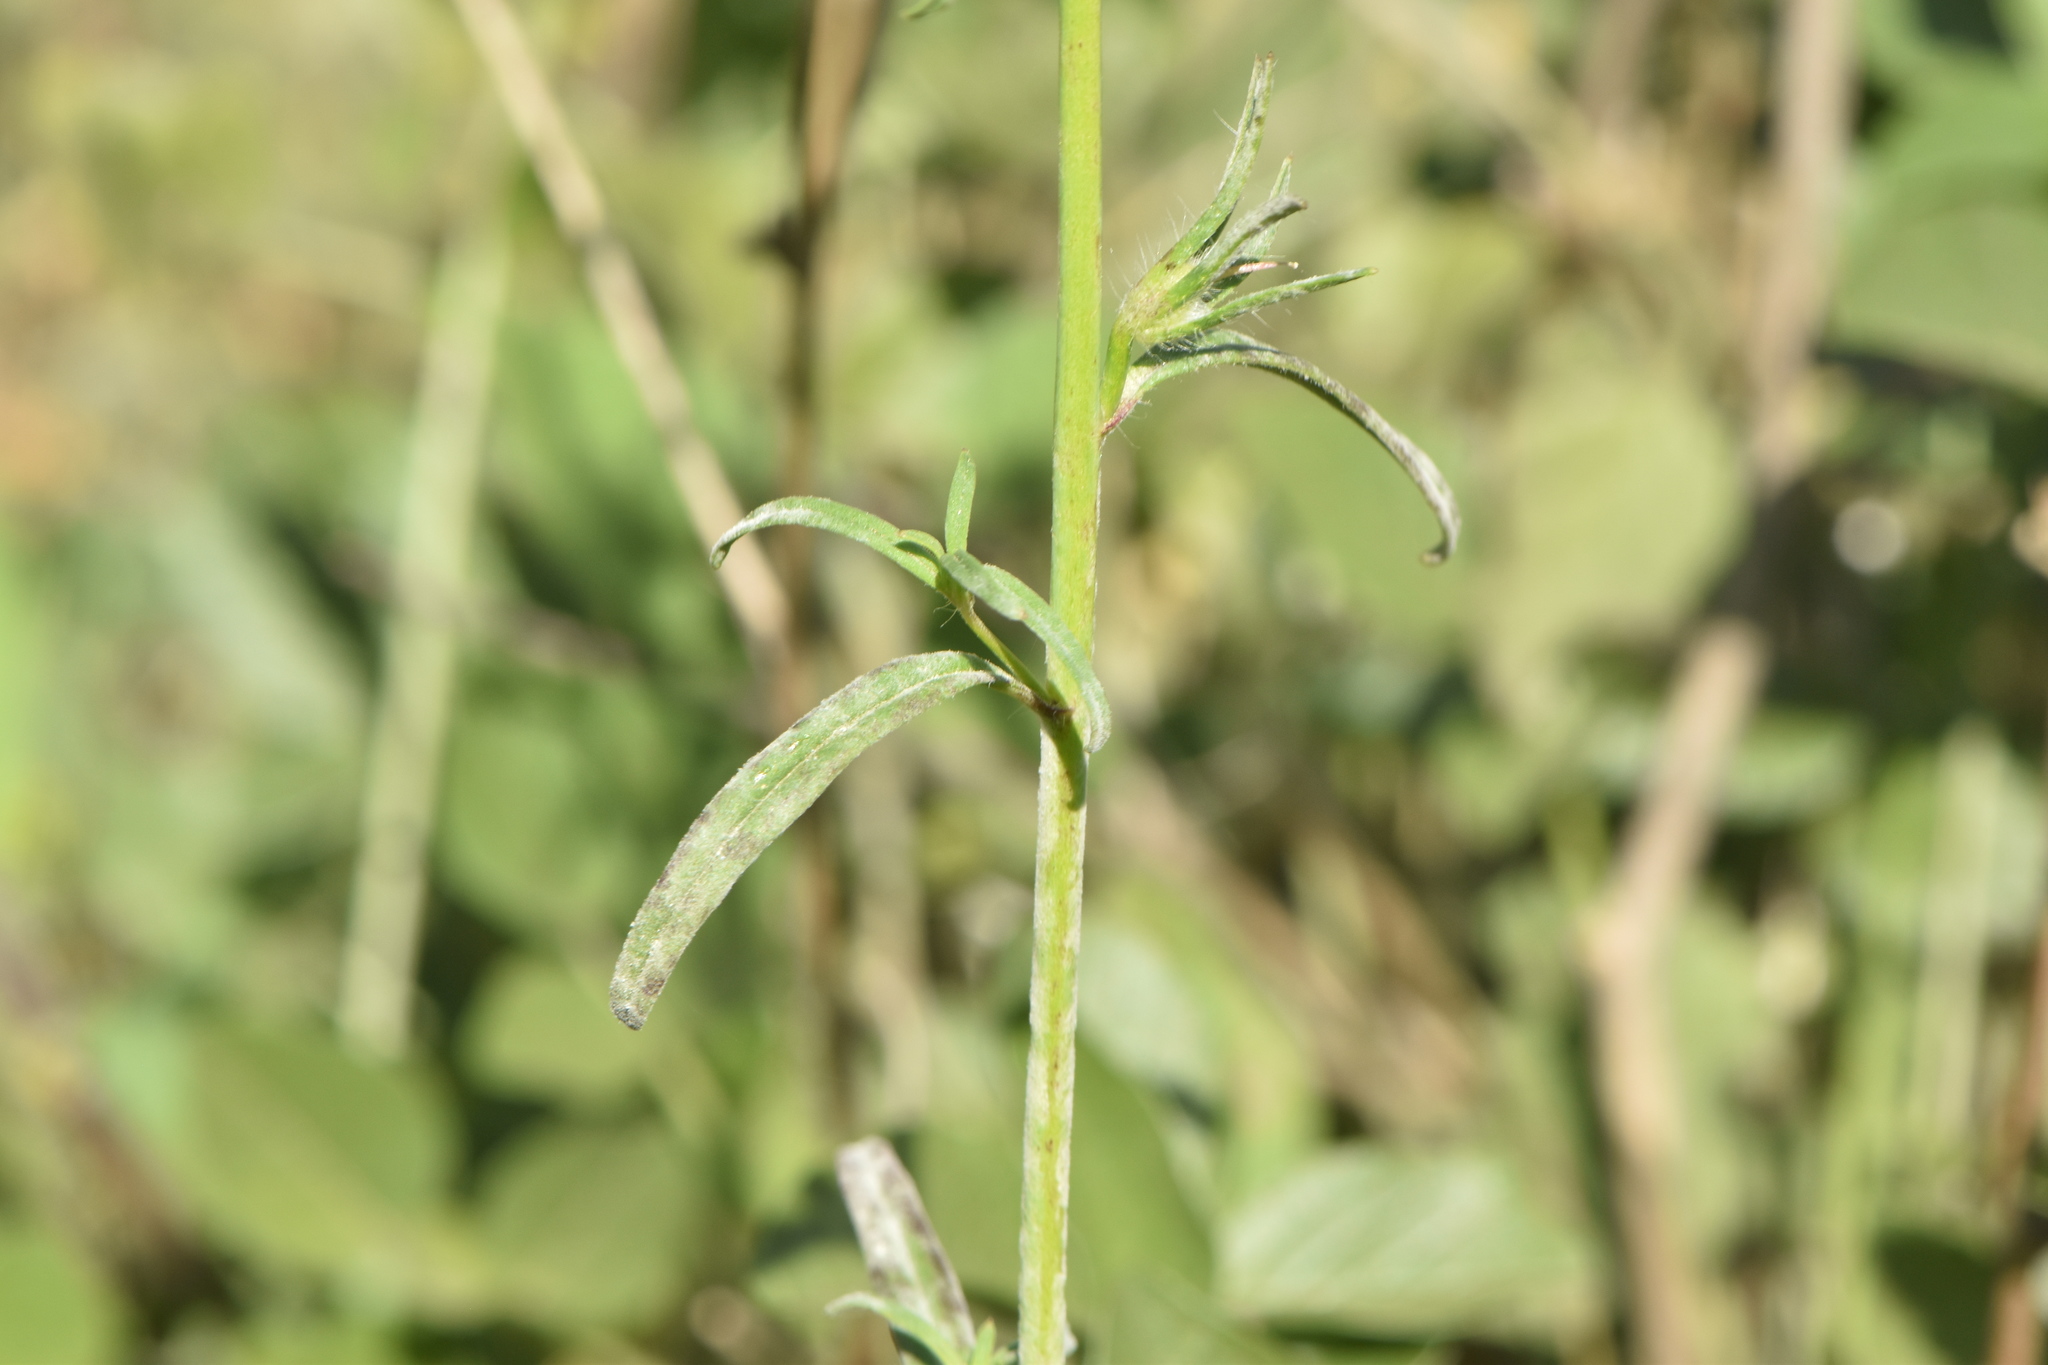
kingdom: Plantae
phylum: Tracheophyta
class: Magnoliopsida
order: Lamiales
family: Plantaginaceae
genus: Misopates
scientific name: Misopates orontium
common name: Weasel's-snout
